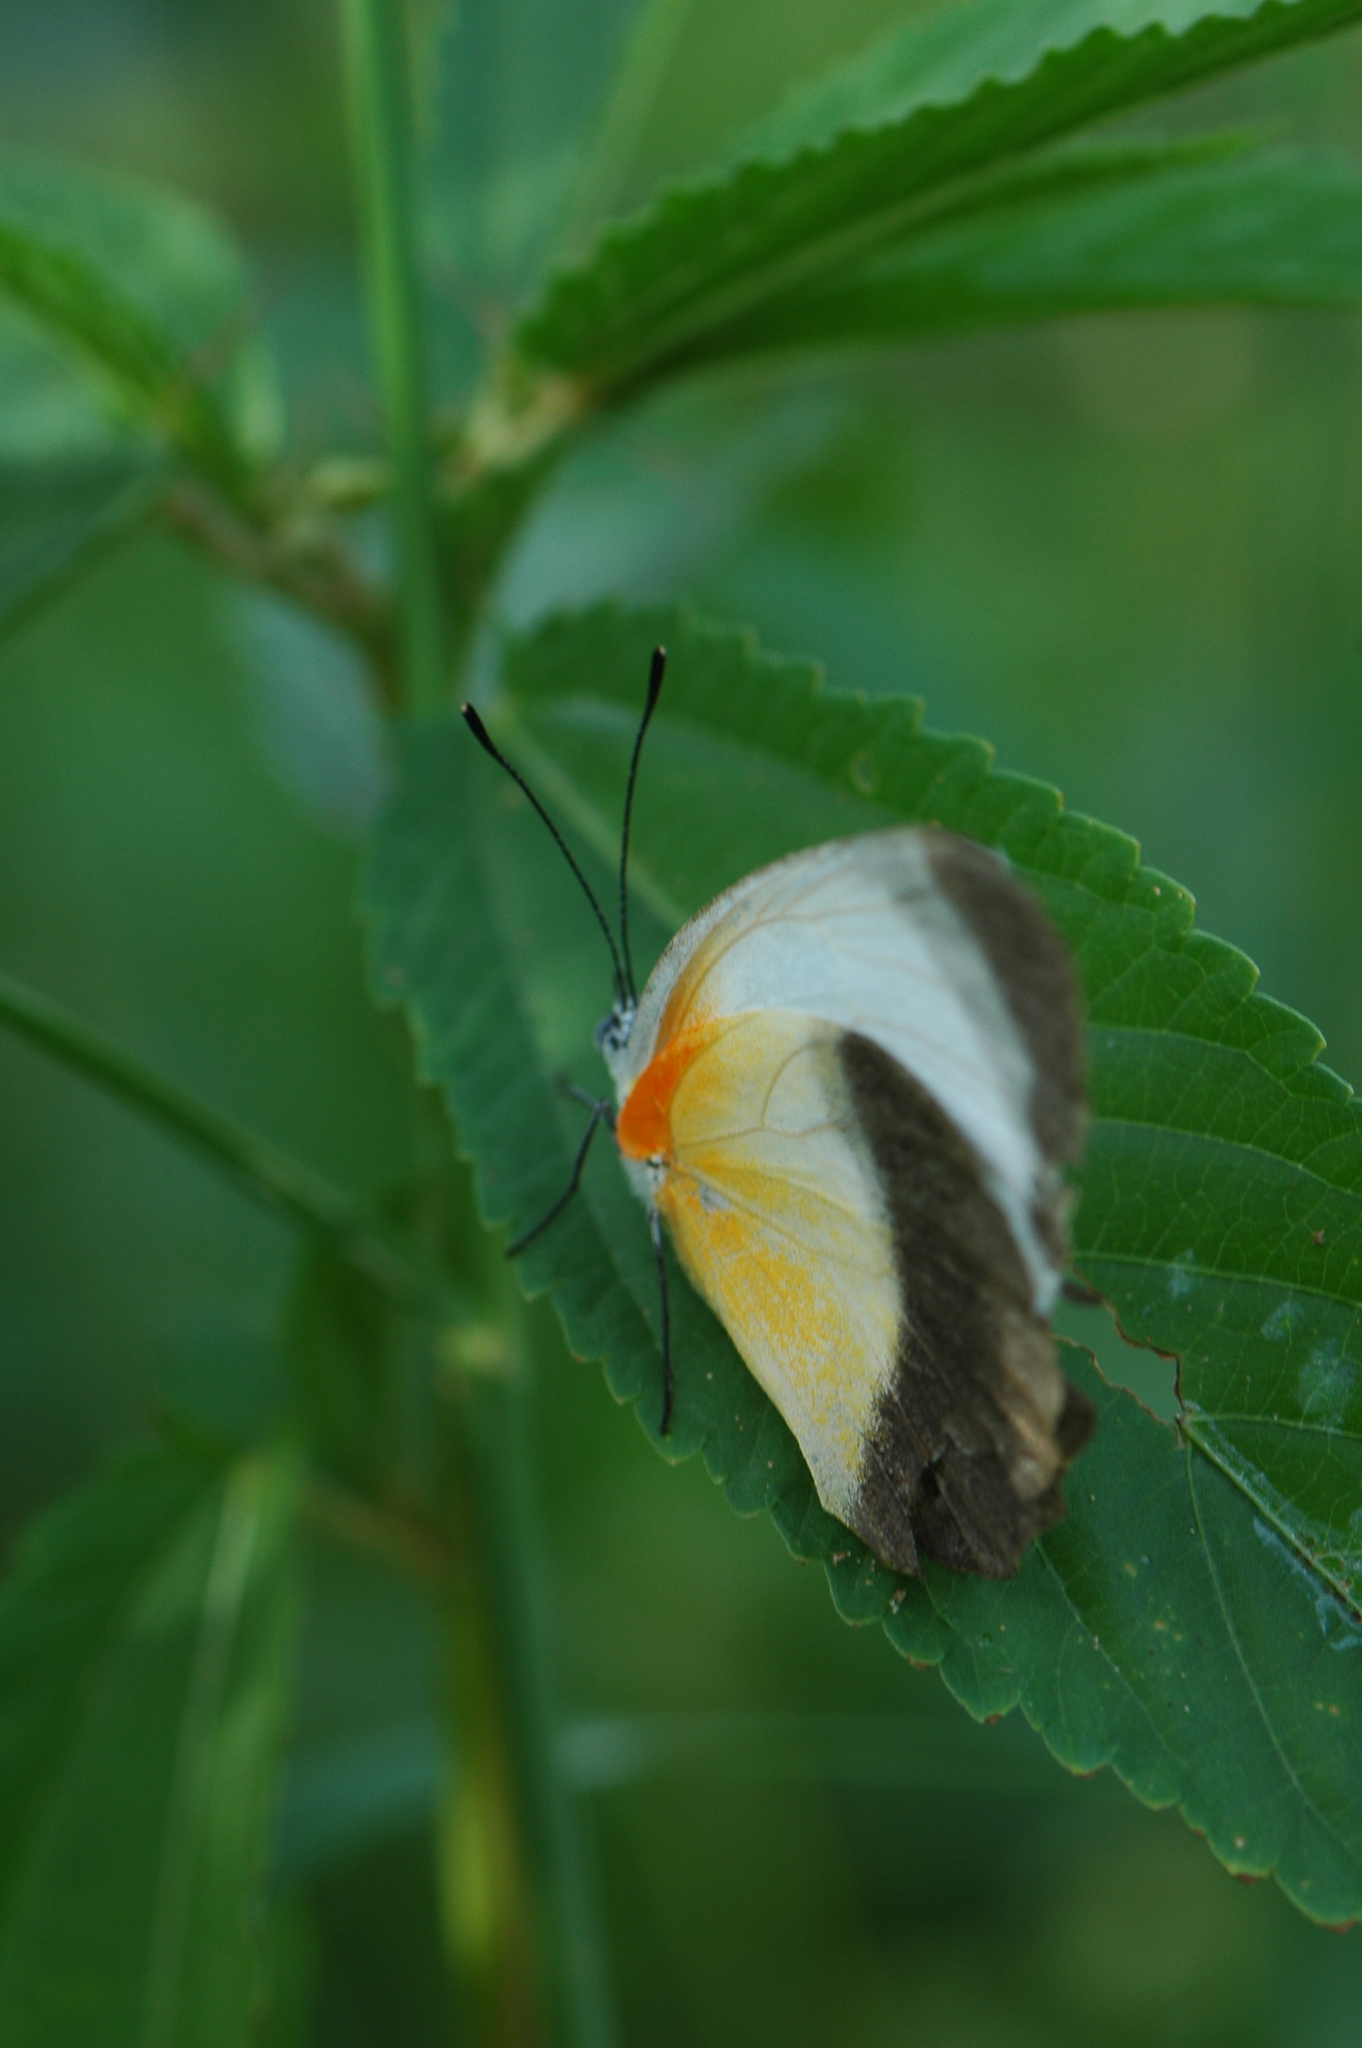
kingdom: Animalia
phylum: Arthropoda
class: Insecta
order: Lepidoptera
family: Pieridae
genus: Mylothris
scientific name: Mylothris chloris
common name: Western dotted border
